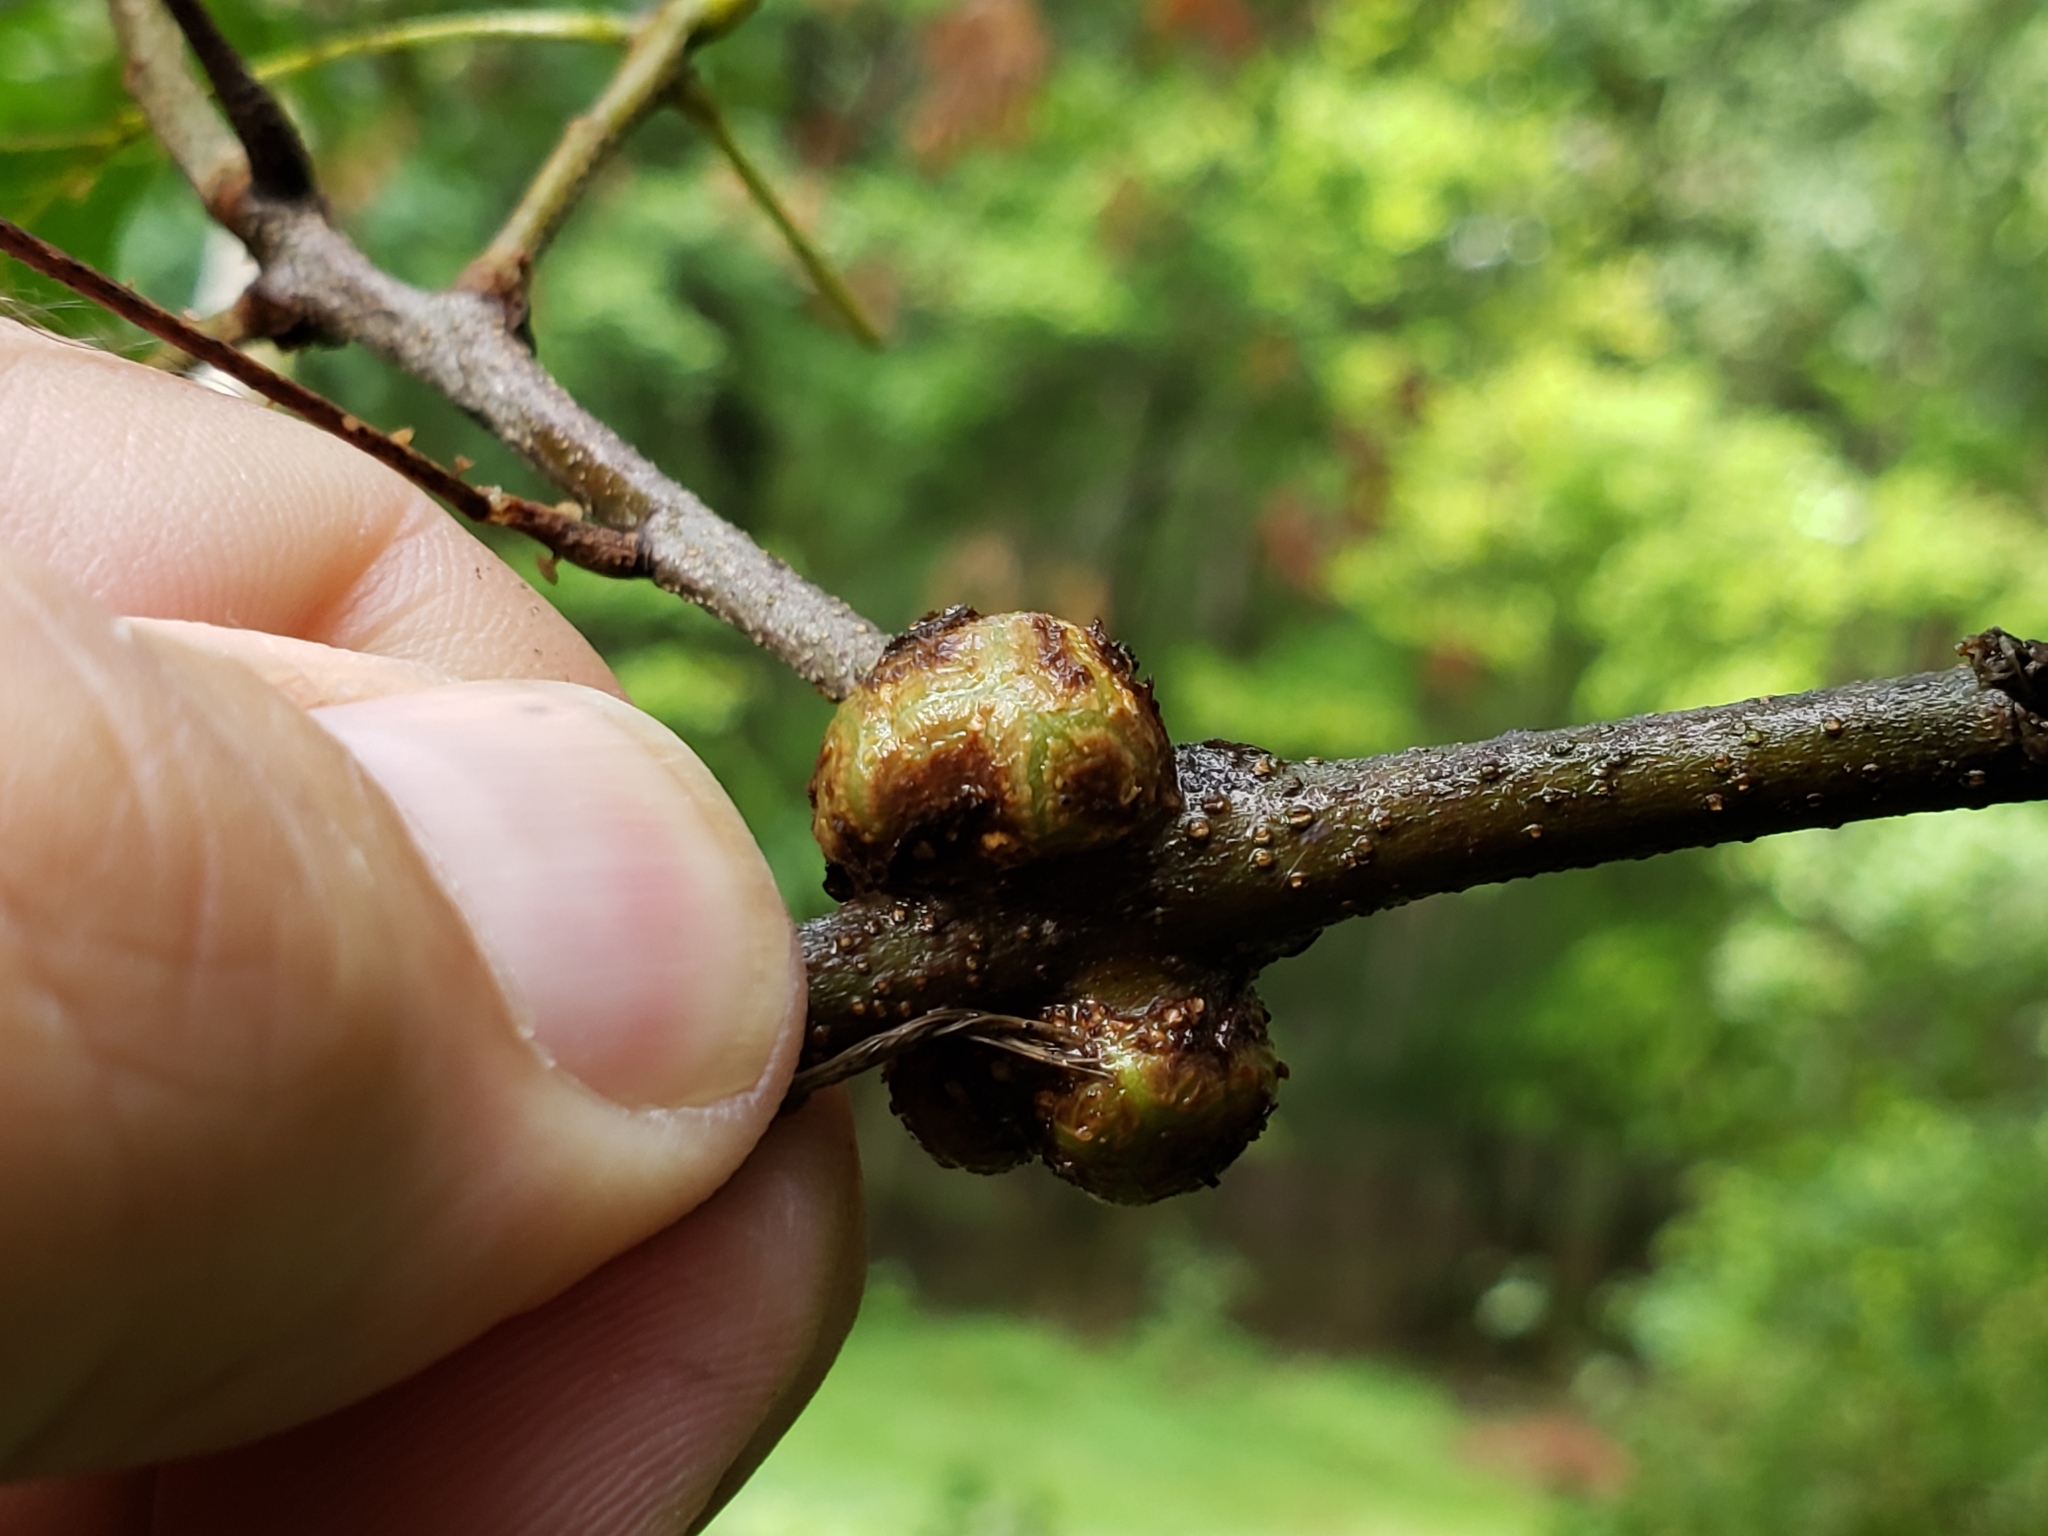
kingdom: Animalia
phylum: Arthropoda
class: Insecta
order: Hymenoptera
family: Cynipidae
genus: Callirhytis
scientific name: Callirhytis
